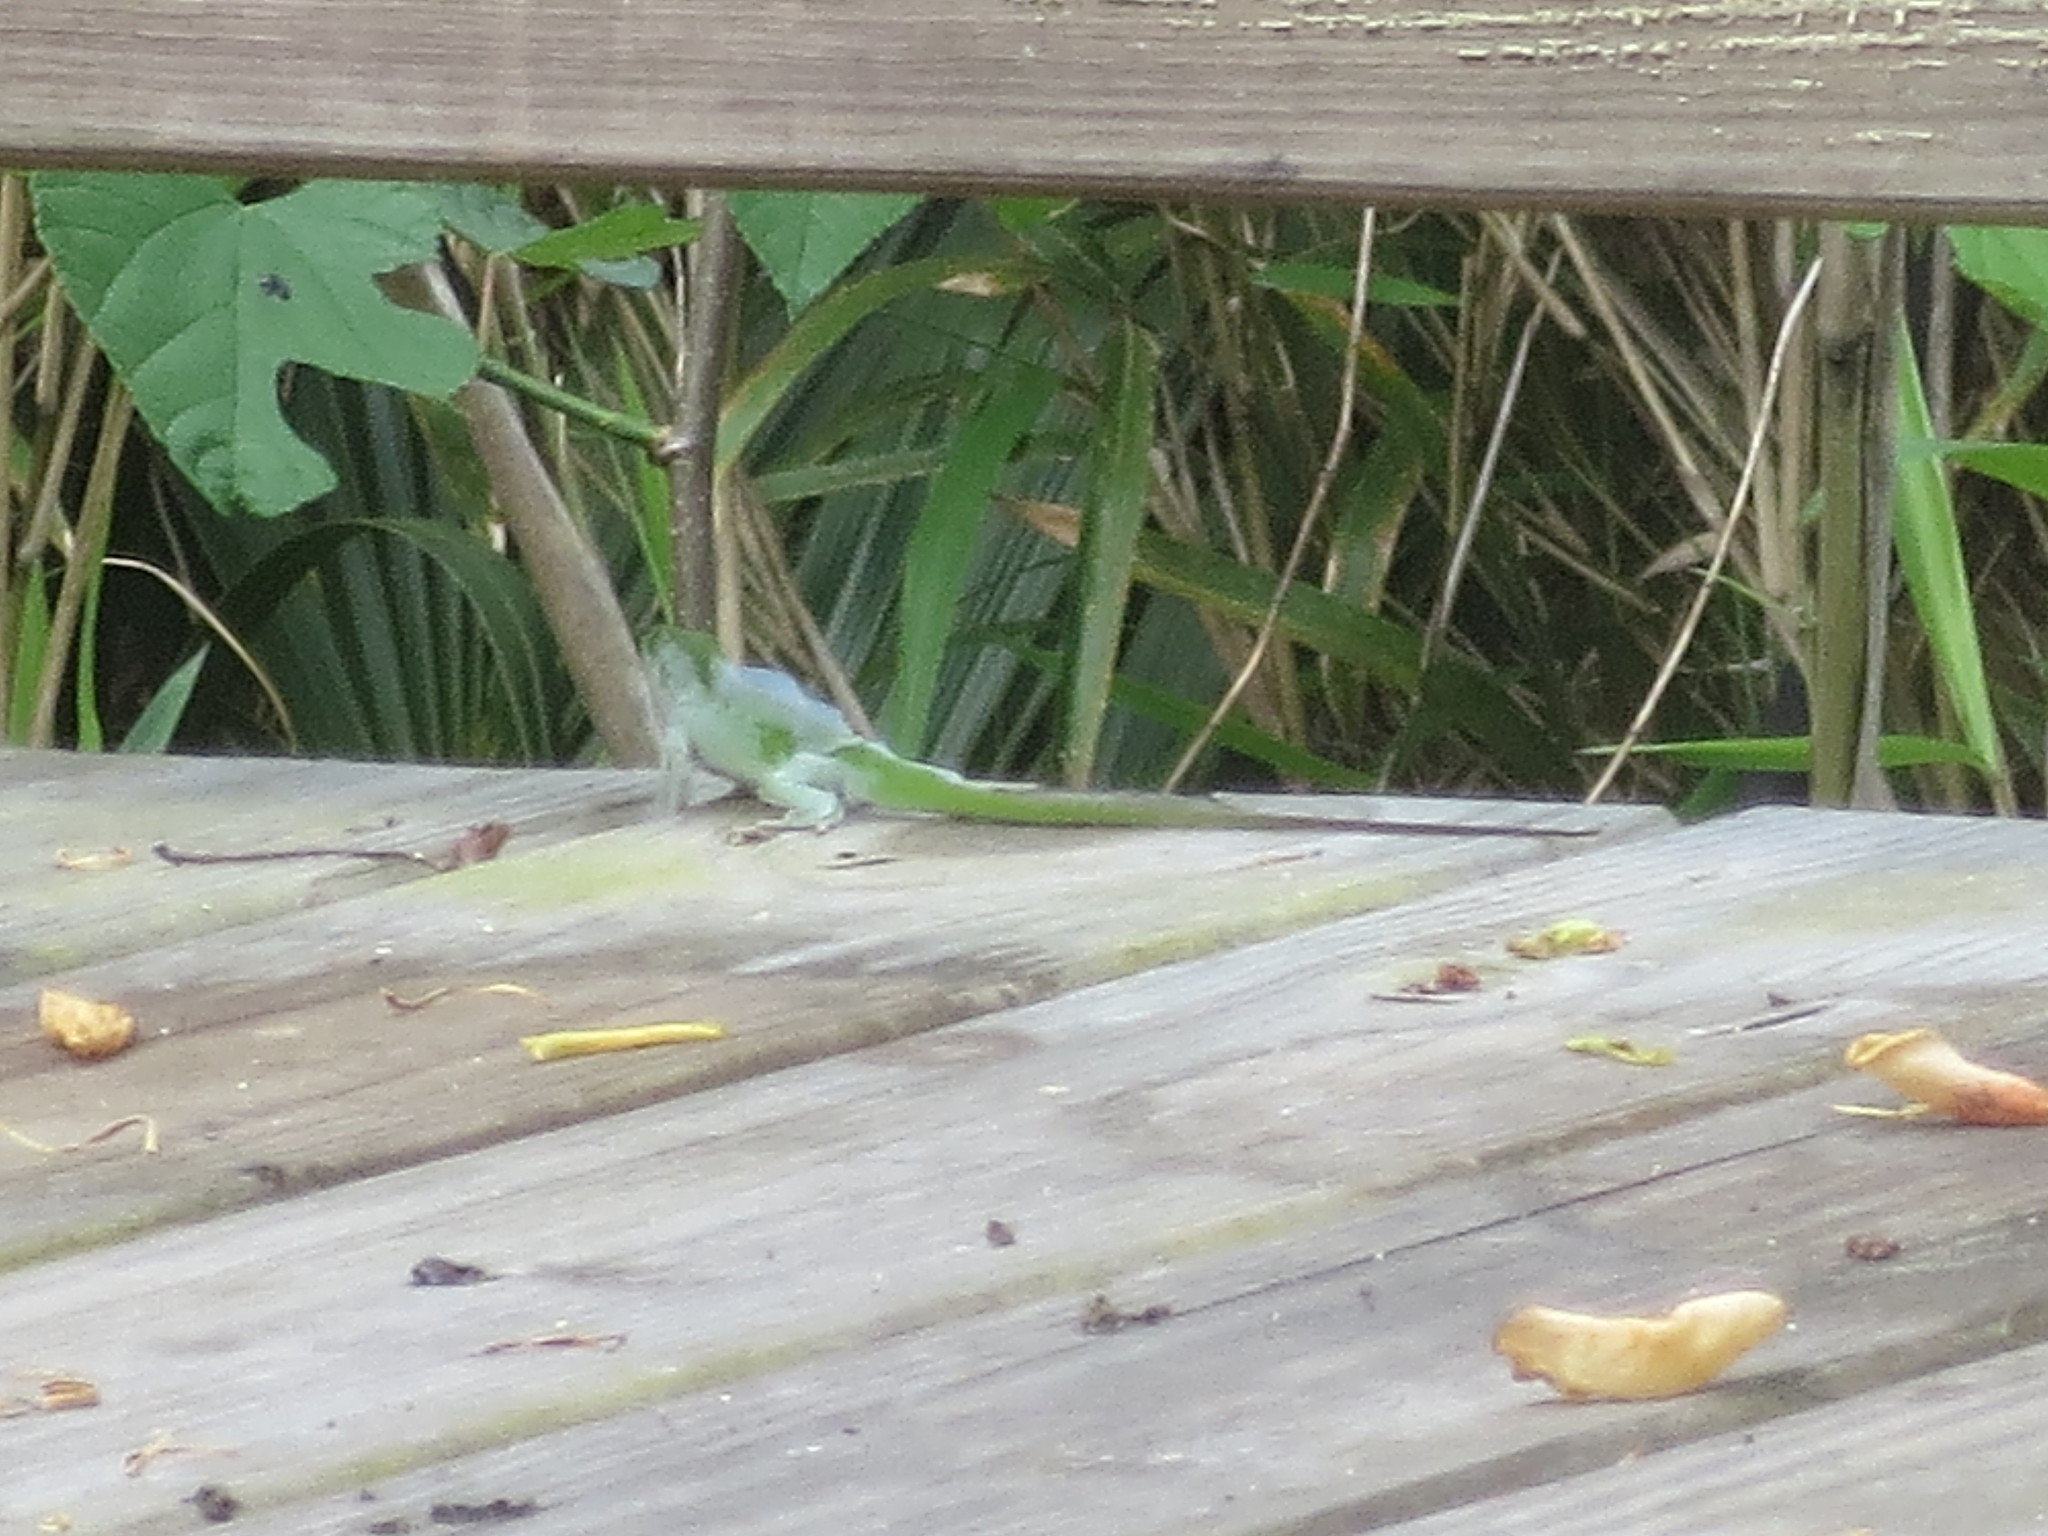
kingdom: Animalia
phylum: Chordata
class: Squamata
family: Dactyloidae
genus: Anolis
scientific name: Anolis carolinensis
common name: Green anole
